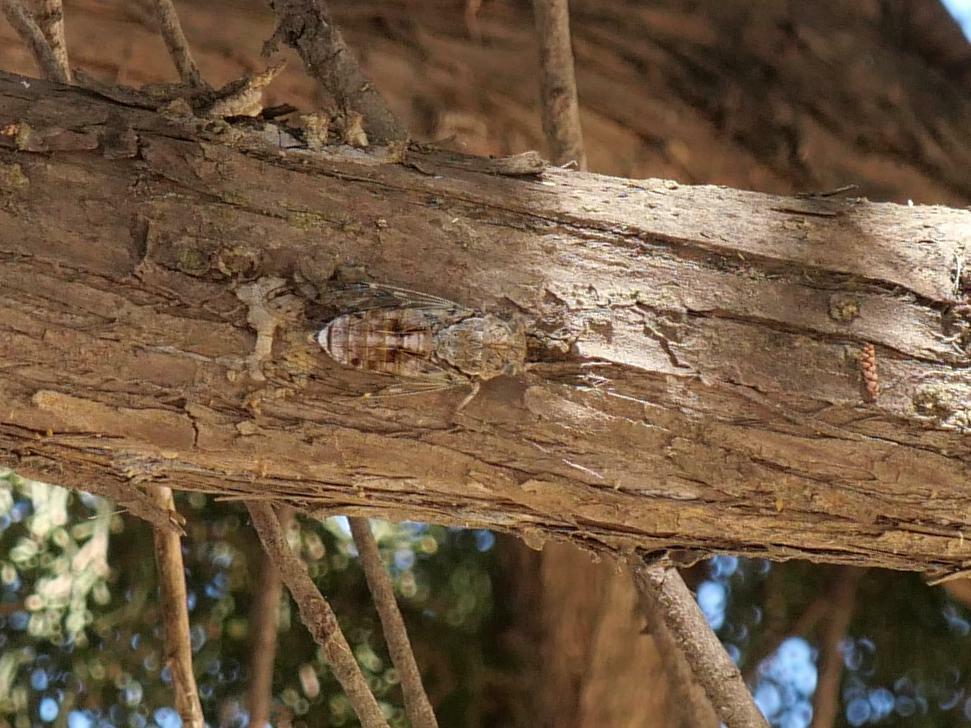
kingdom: Animalia
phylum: Arthropoda
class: Insecta
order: Hemiptera
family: Cicadidae
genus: Cicada
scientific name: Cicada orni
